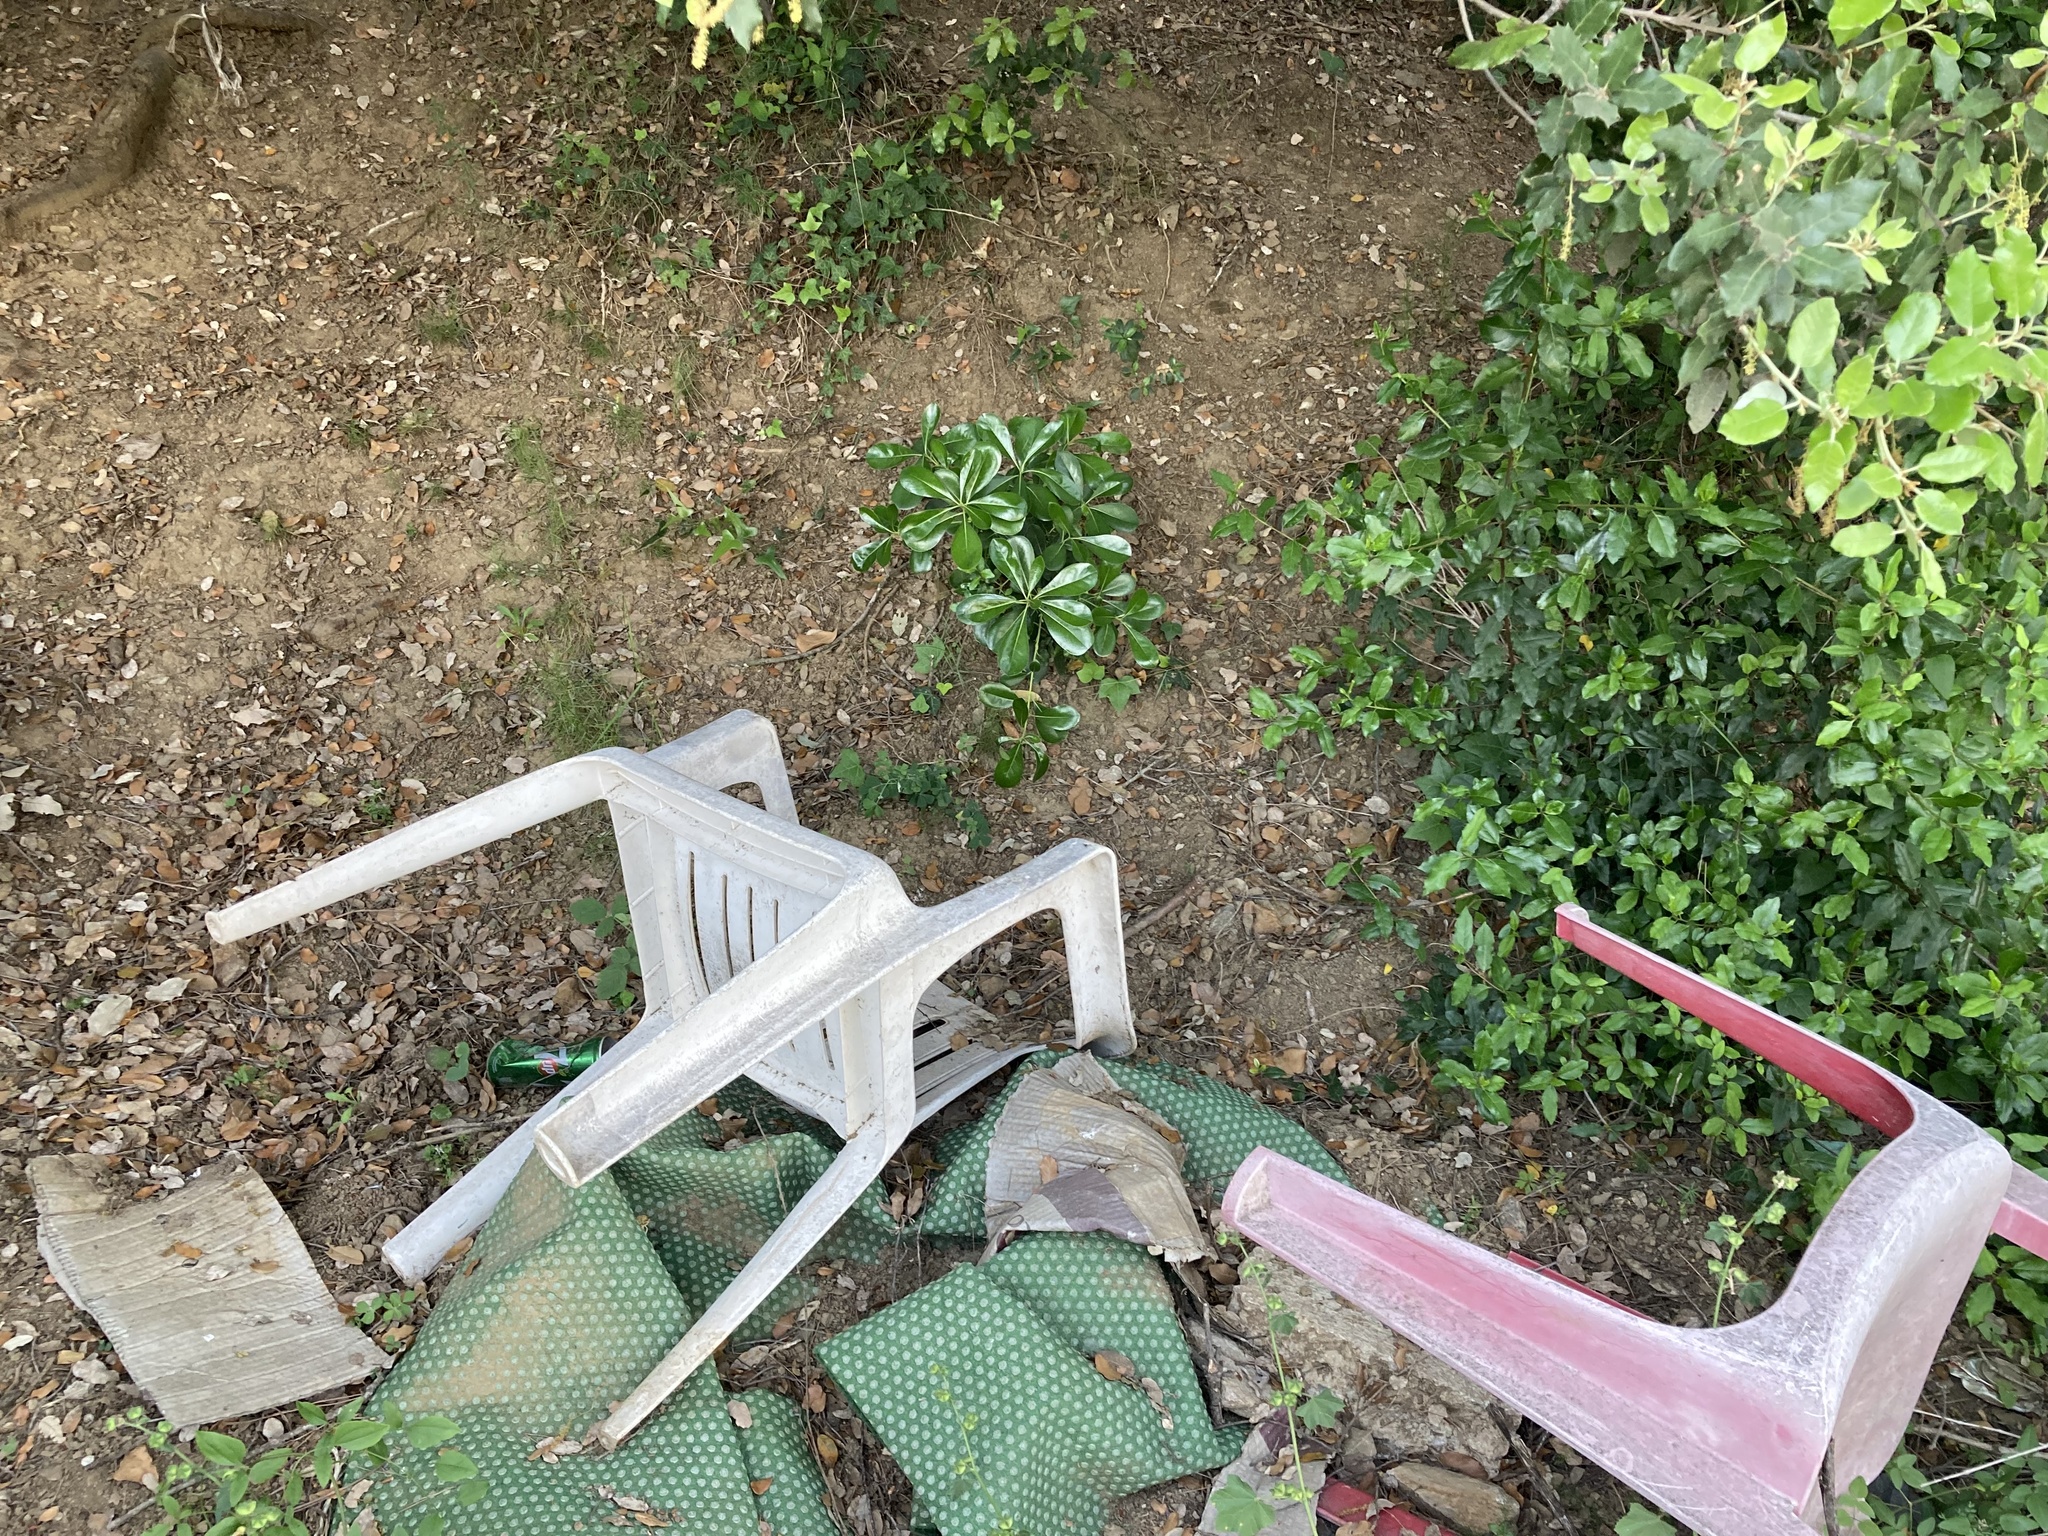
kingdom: Plantae
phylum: Tracheophyta
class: Magnoliopsida
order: Apiales
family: Pittosporaceae
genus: Pittosporum
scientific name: Pittosporum tobira
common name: Japanese cheesewood
